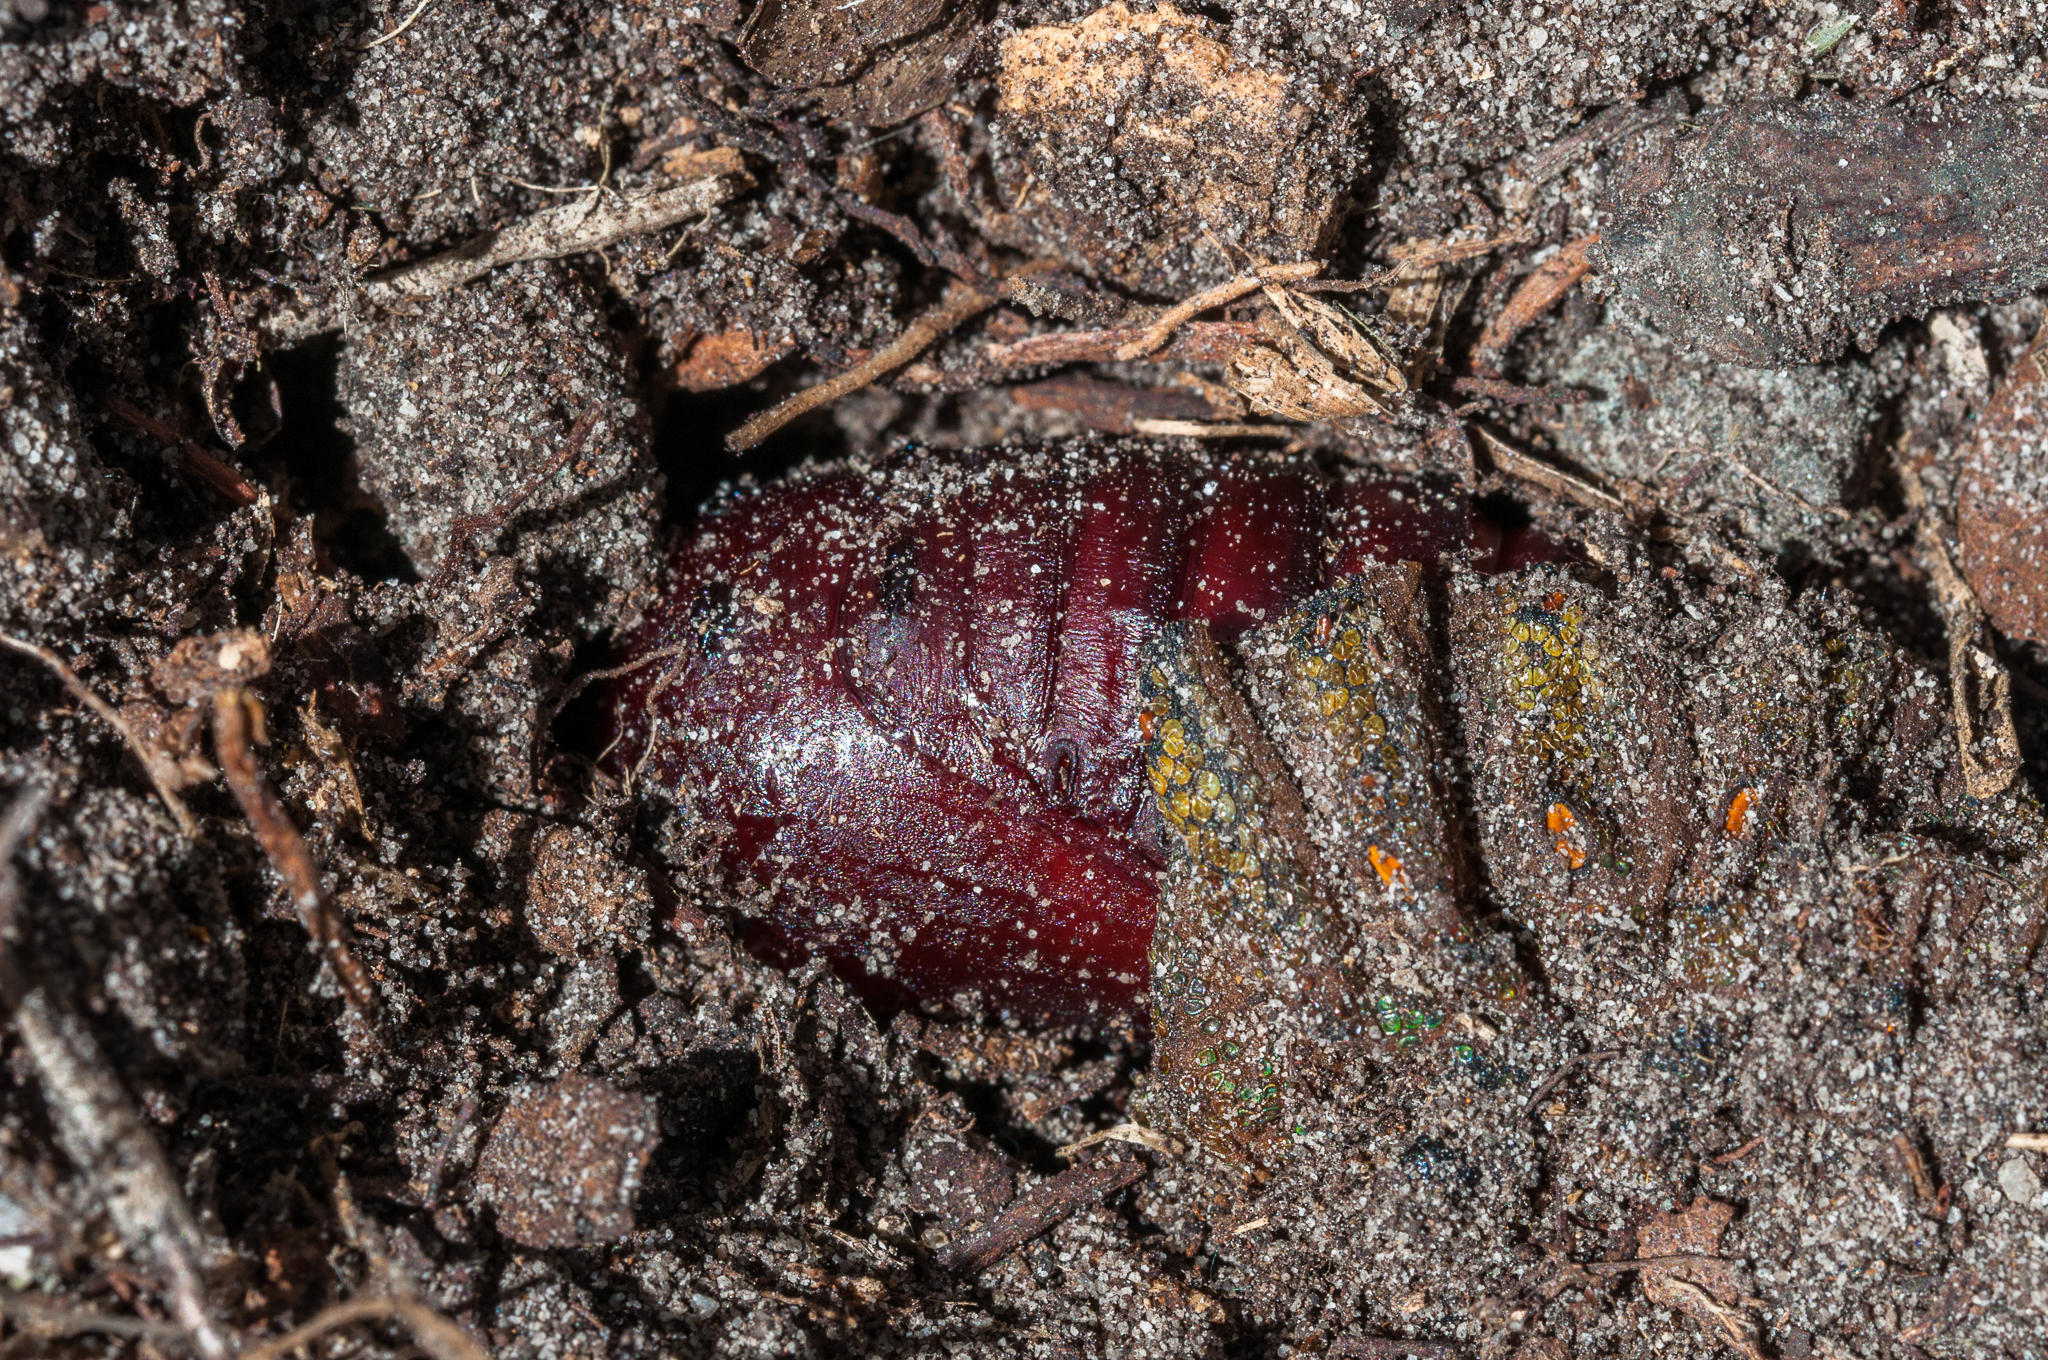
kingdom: Animalia
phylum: Arthropoda
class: Insecta
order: Lepidoptera
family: Saturniidae
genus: Nudaurelia
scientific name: Nudaurelia cytherea
